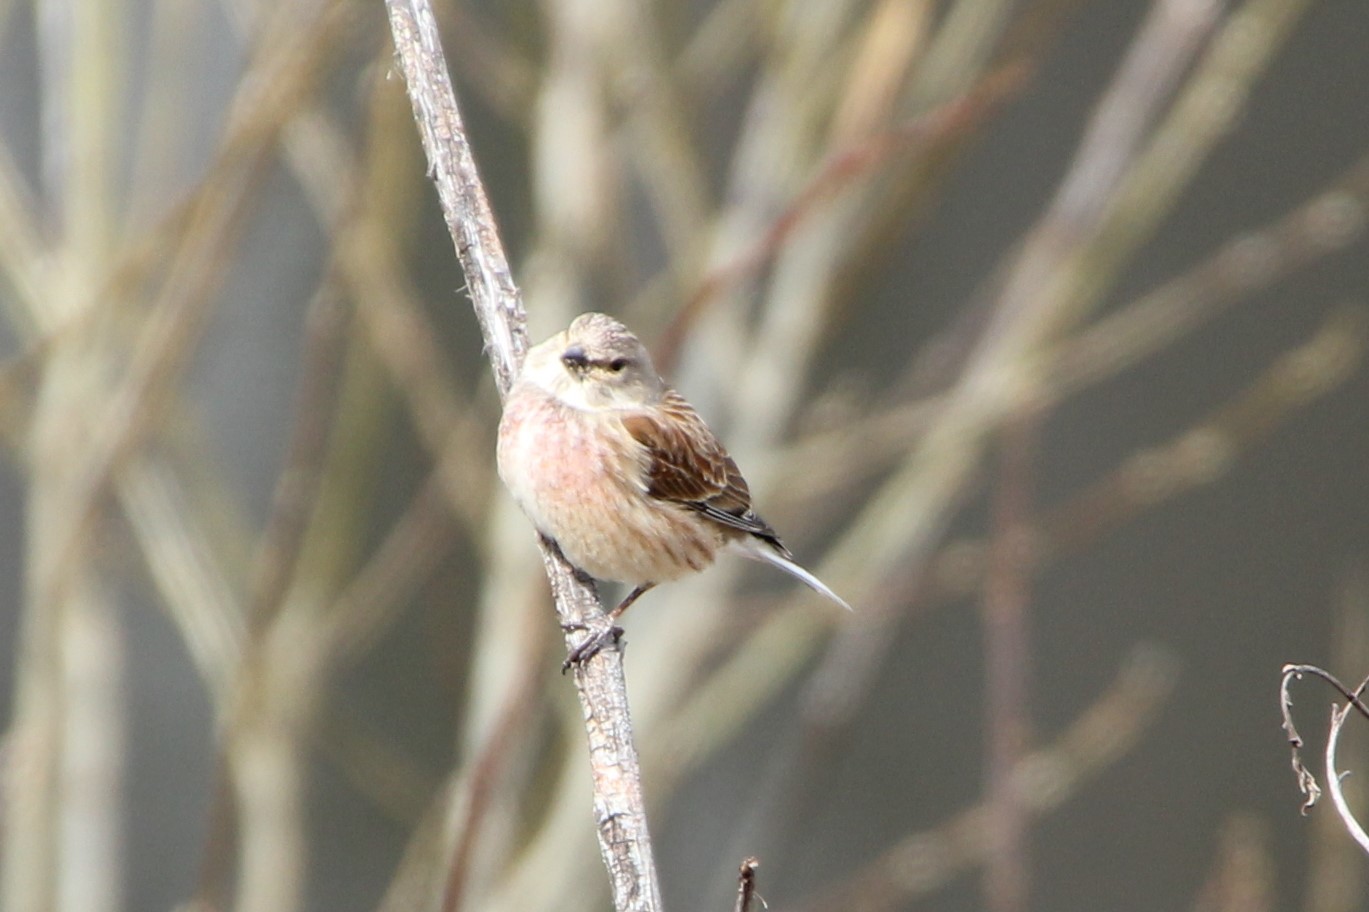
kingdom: Animalia
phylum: Chordata
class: Aves
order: Passeriformes
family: Fringillidae
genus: Linaria
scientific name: Linaria cannabina
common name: Common linnet
